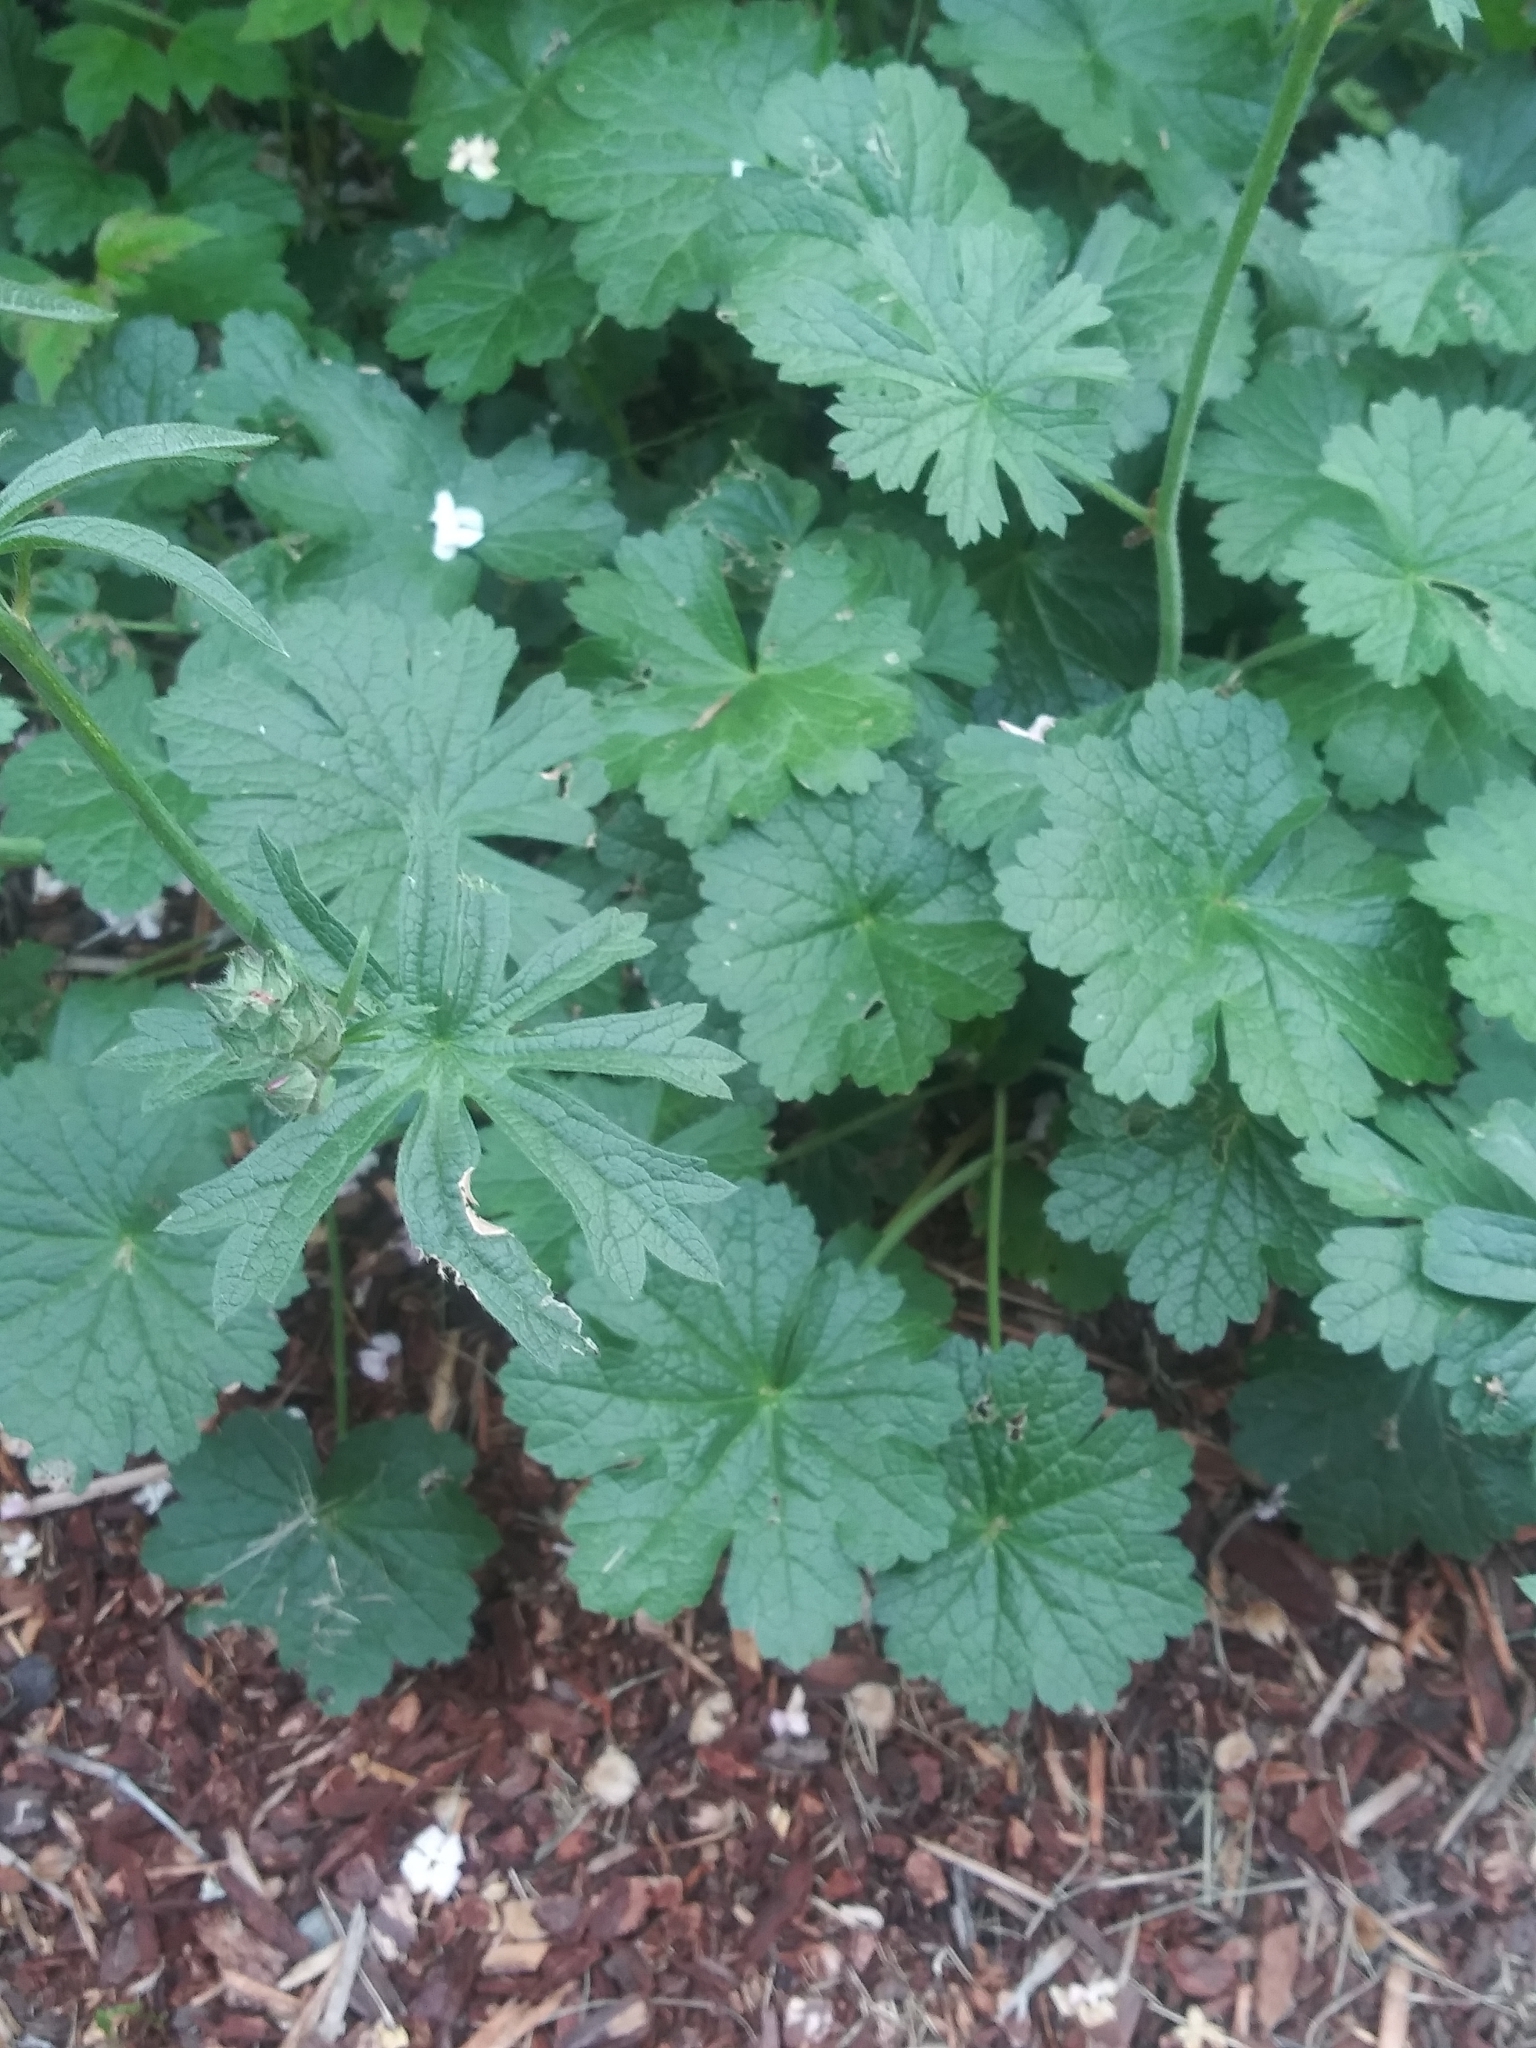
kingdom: Plantae
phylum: Tracheophyta
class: Magnoliopsida
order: Malvales
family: Malvaceae
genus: Sidalcea
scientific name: Sidalcea malviflora
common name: Greek mallow
